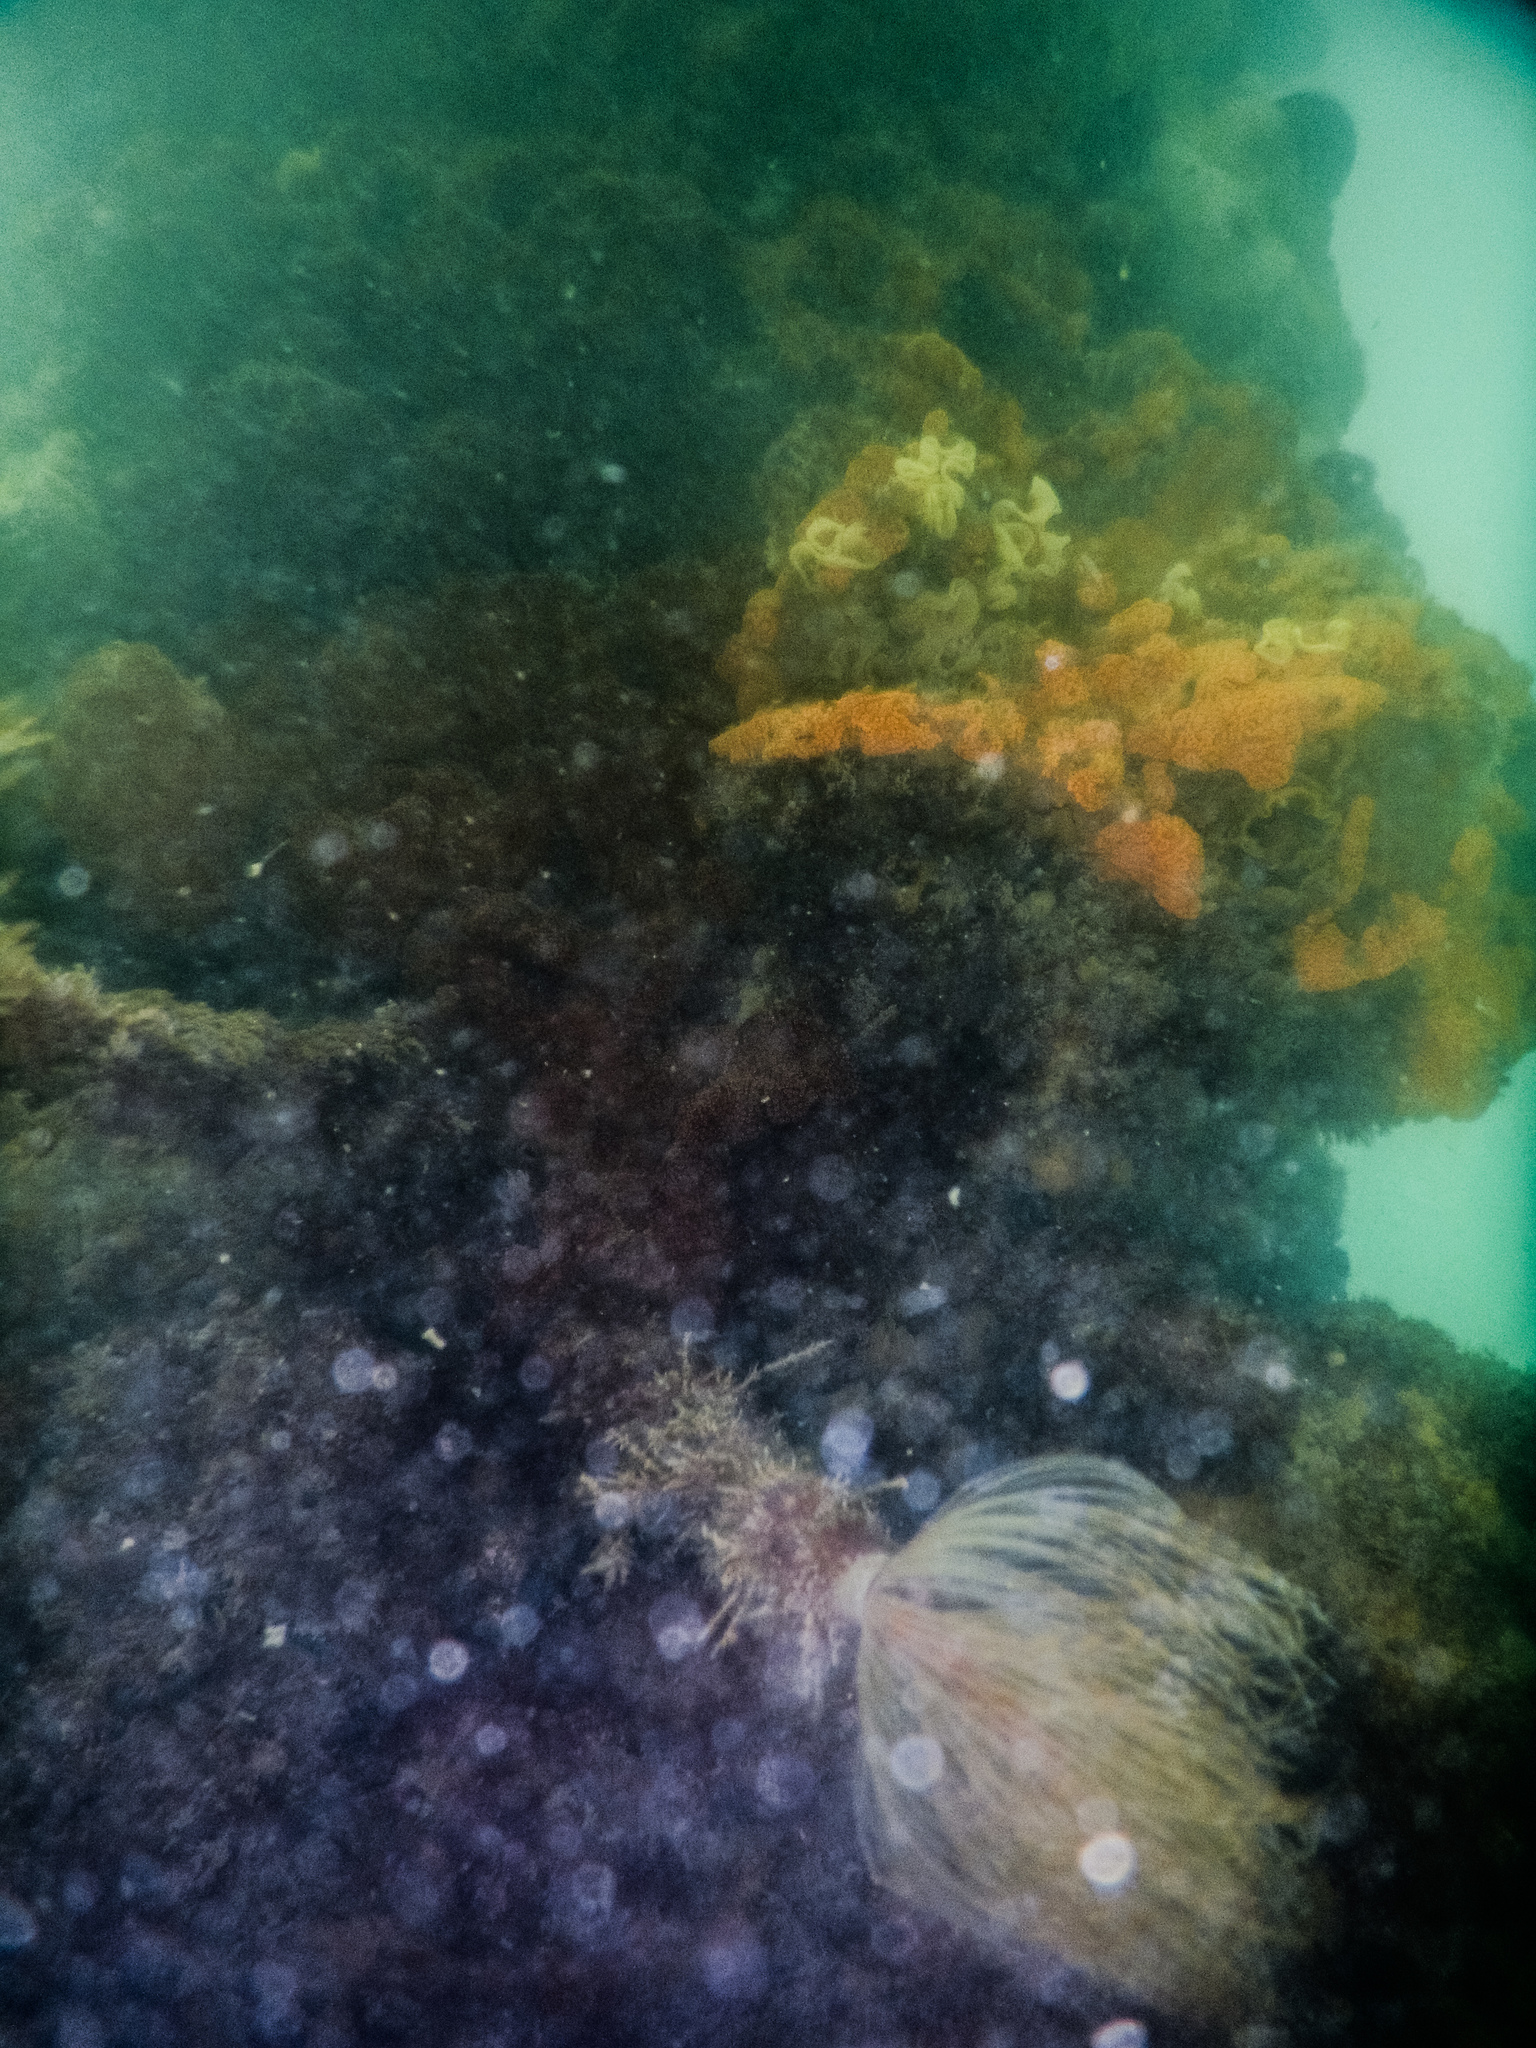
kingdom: Animalia
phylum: Annelida
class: Polychaeta
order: Sabellida
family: Sabellidae
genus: Sabella
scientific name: Sabella spallanzanii
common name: Feather duster worm
